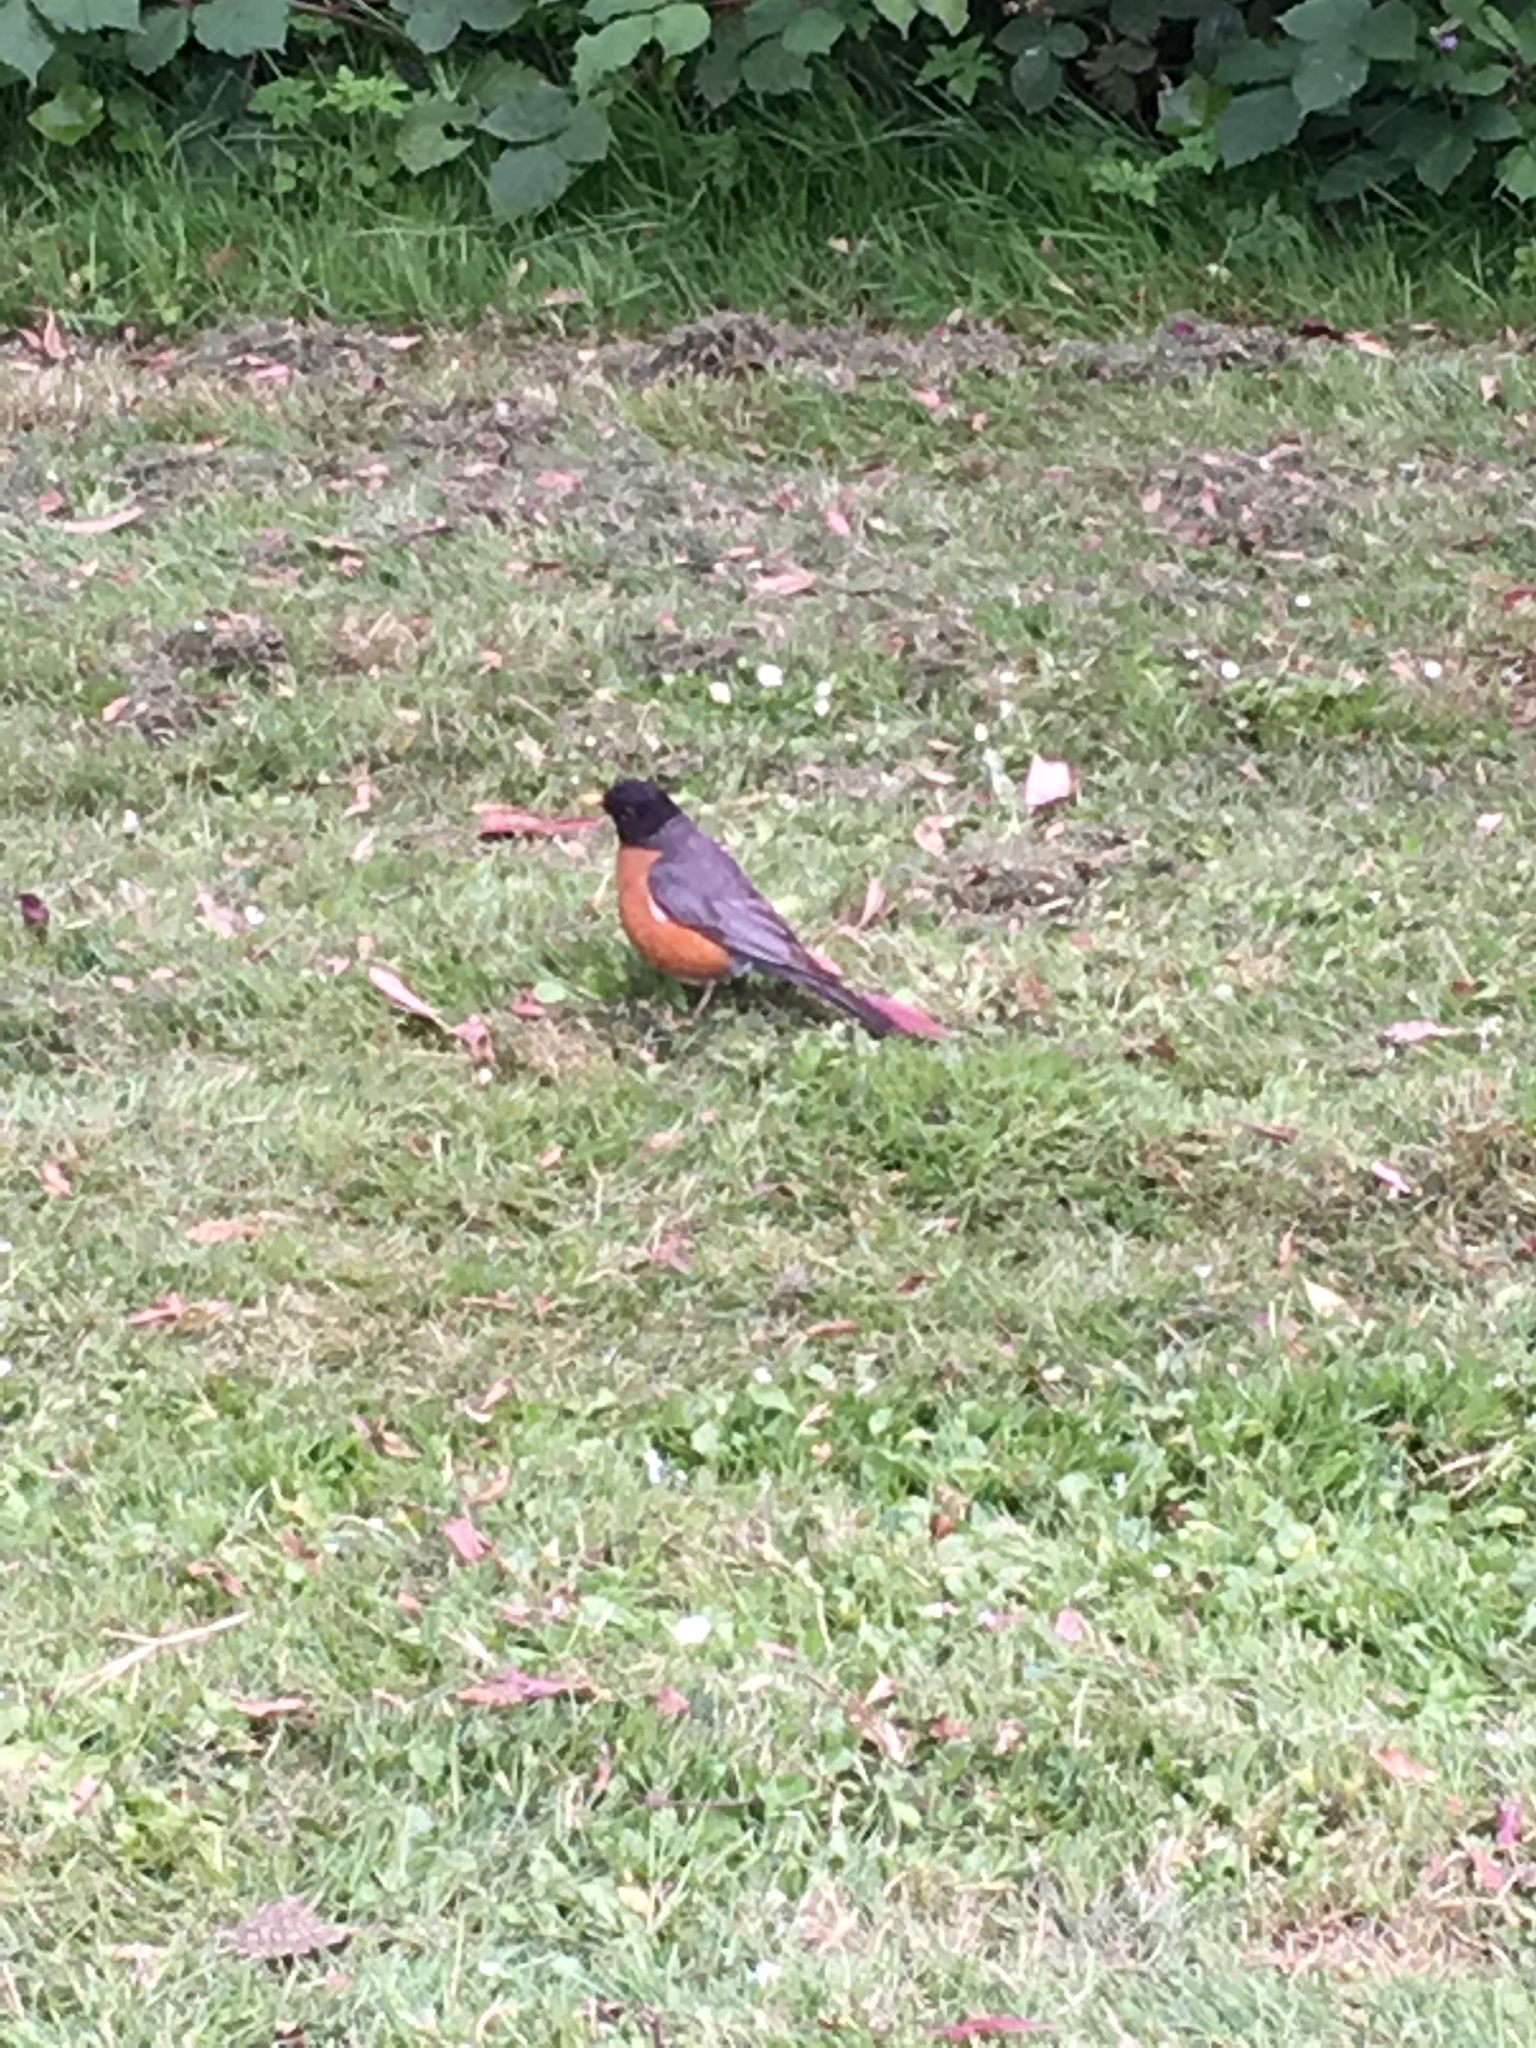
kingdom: Animalia
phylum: Chordata
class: Aves
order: Passeriformes
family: Turdidae
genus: Turdus
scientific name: Turdus migratorius
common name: American robin
